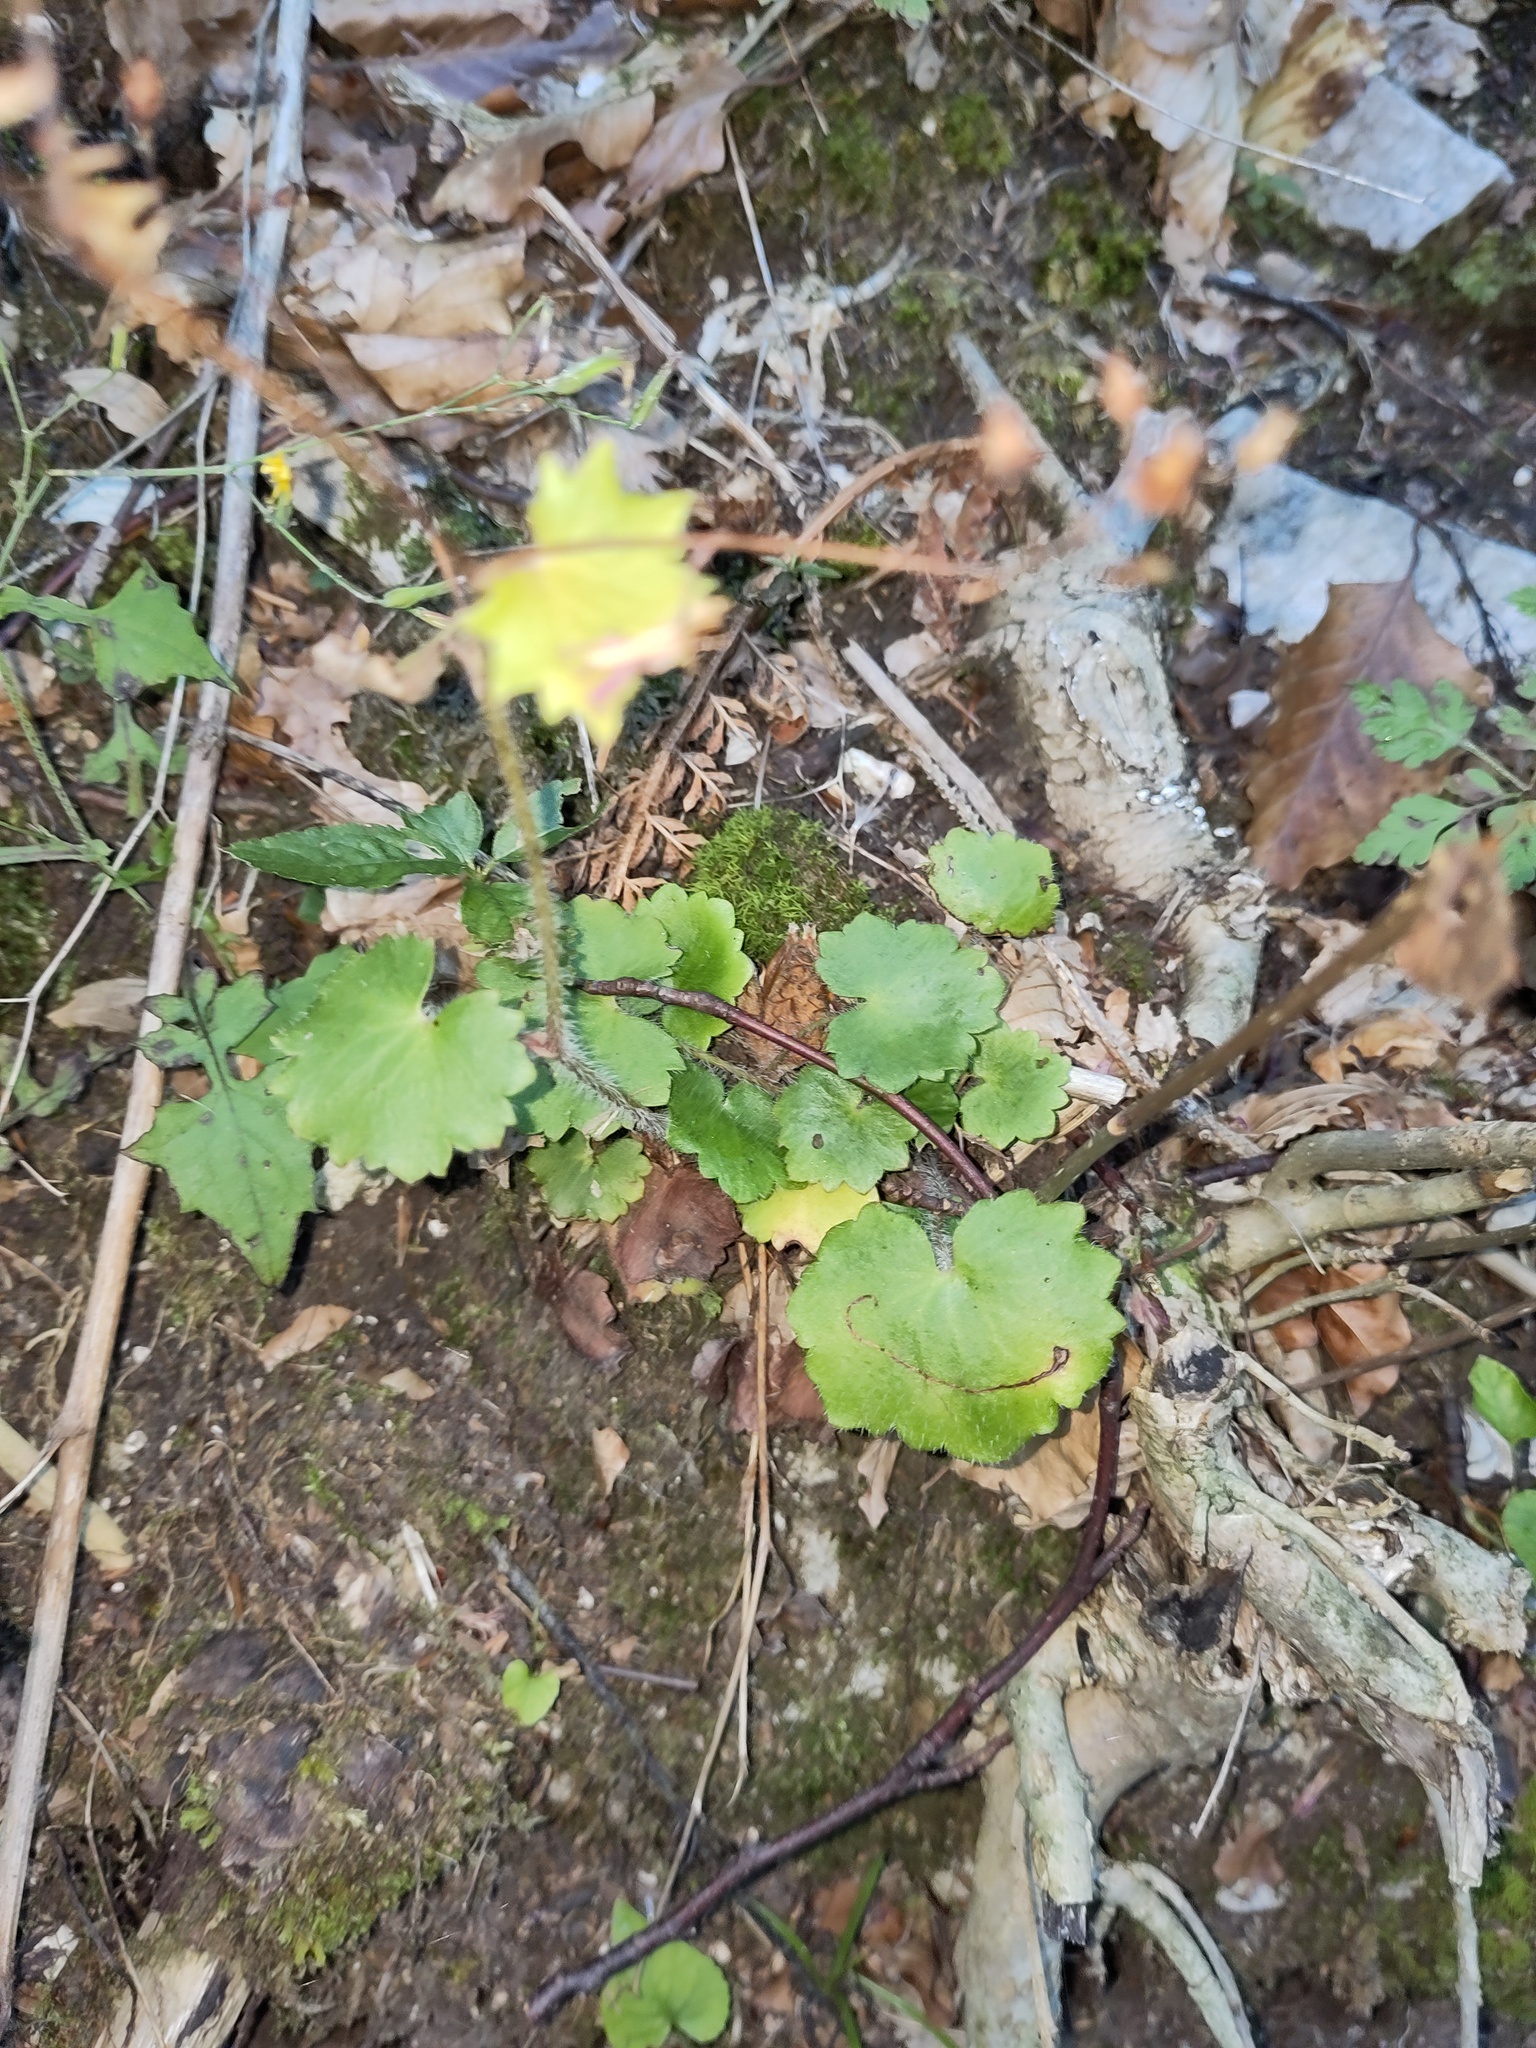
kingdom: Plantae
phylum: Tracheophyta
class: Magnoliopsida
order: Saxifragales
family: Saxifragaceae
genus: Saxifraga
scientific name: Saxifraga rotundifolia
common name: Round-leaved saxifrage
